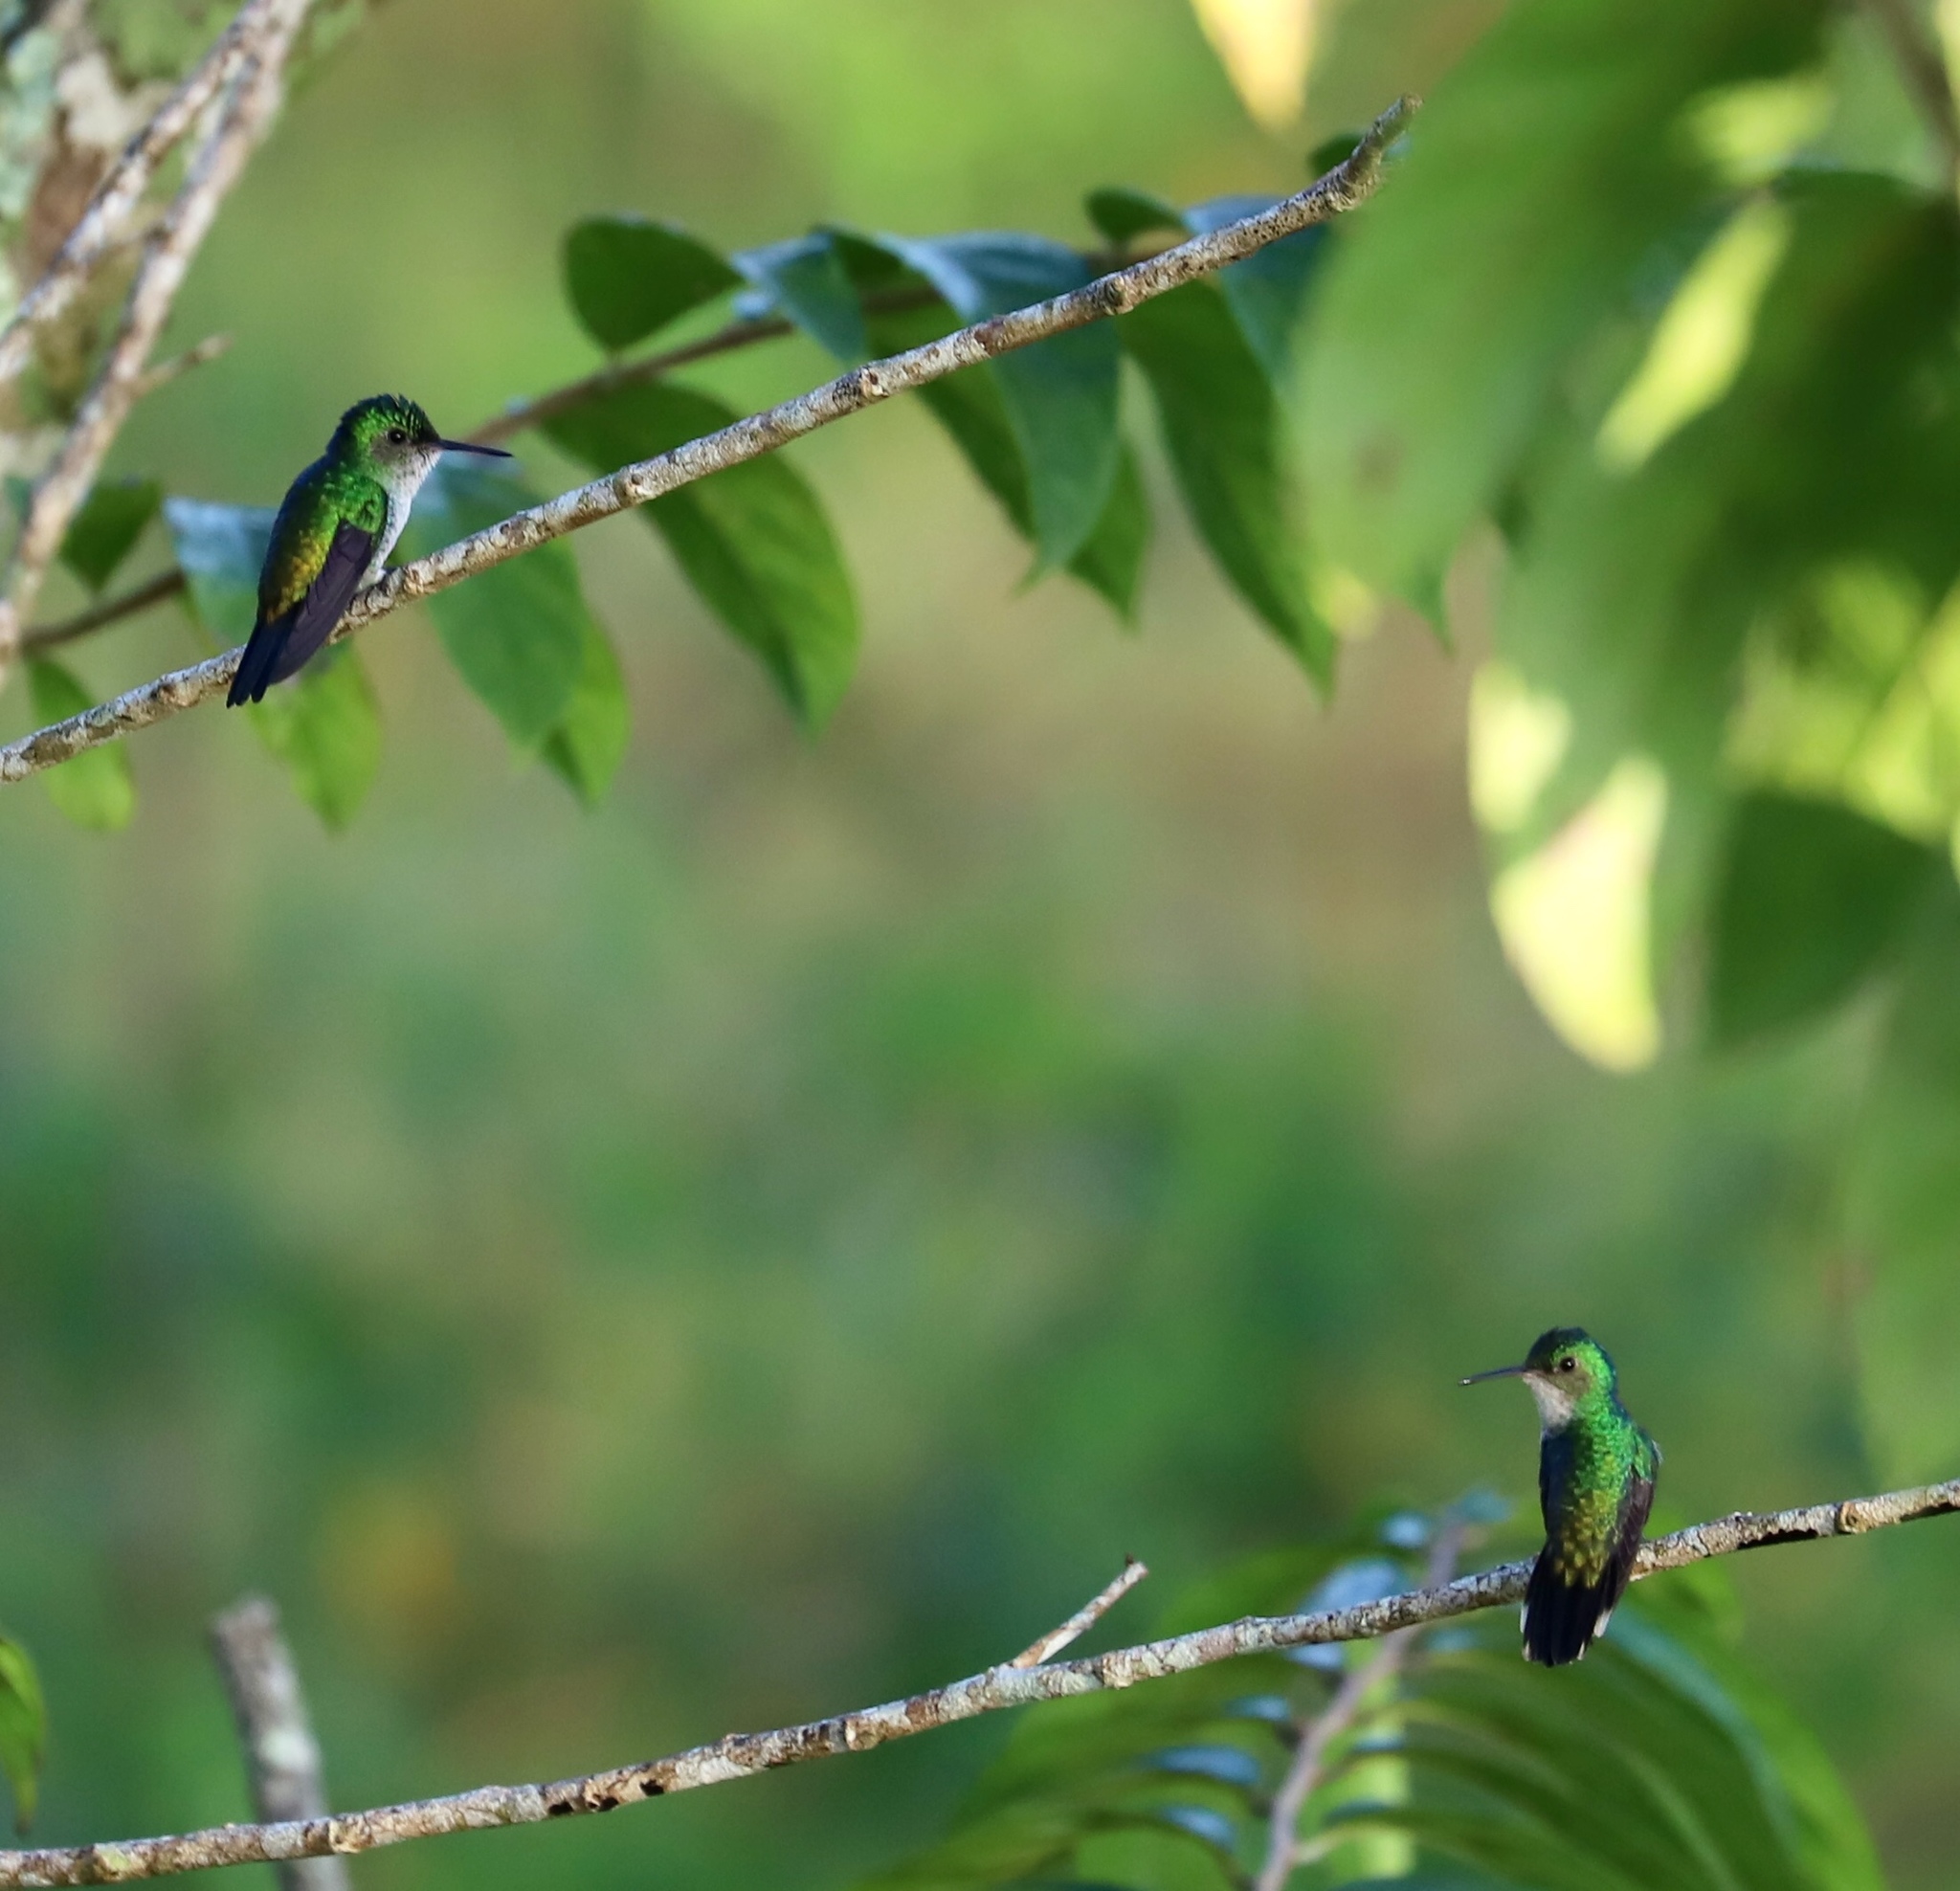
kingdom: Animalia
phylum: Chordata
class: Aves
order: Apodiformes
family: Trochilidae
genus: Chlorestes
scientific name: Chlorestes julie
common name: Violet-bellied hummingbird
